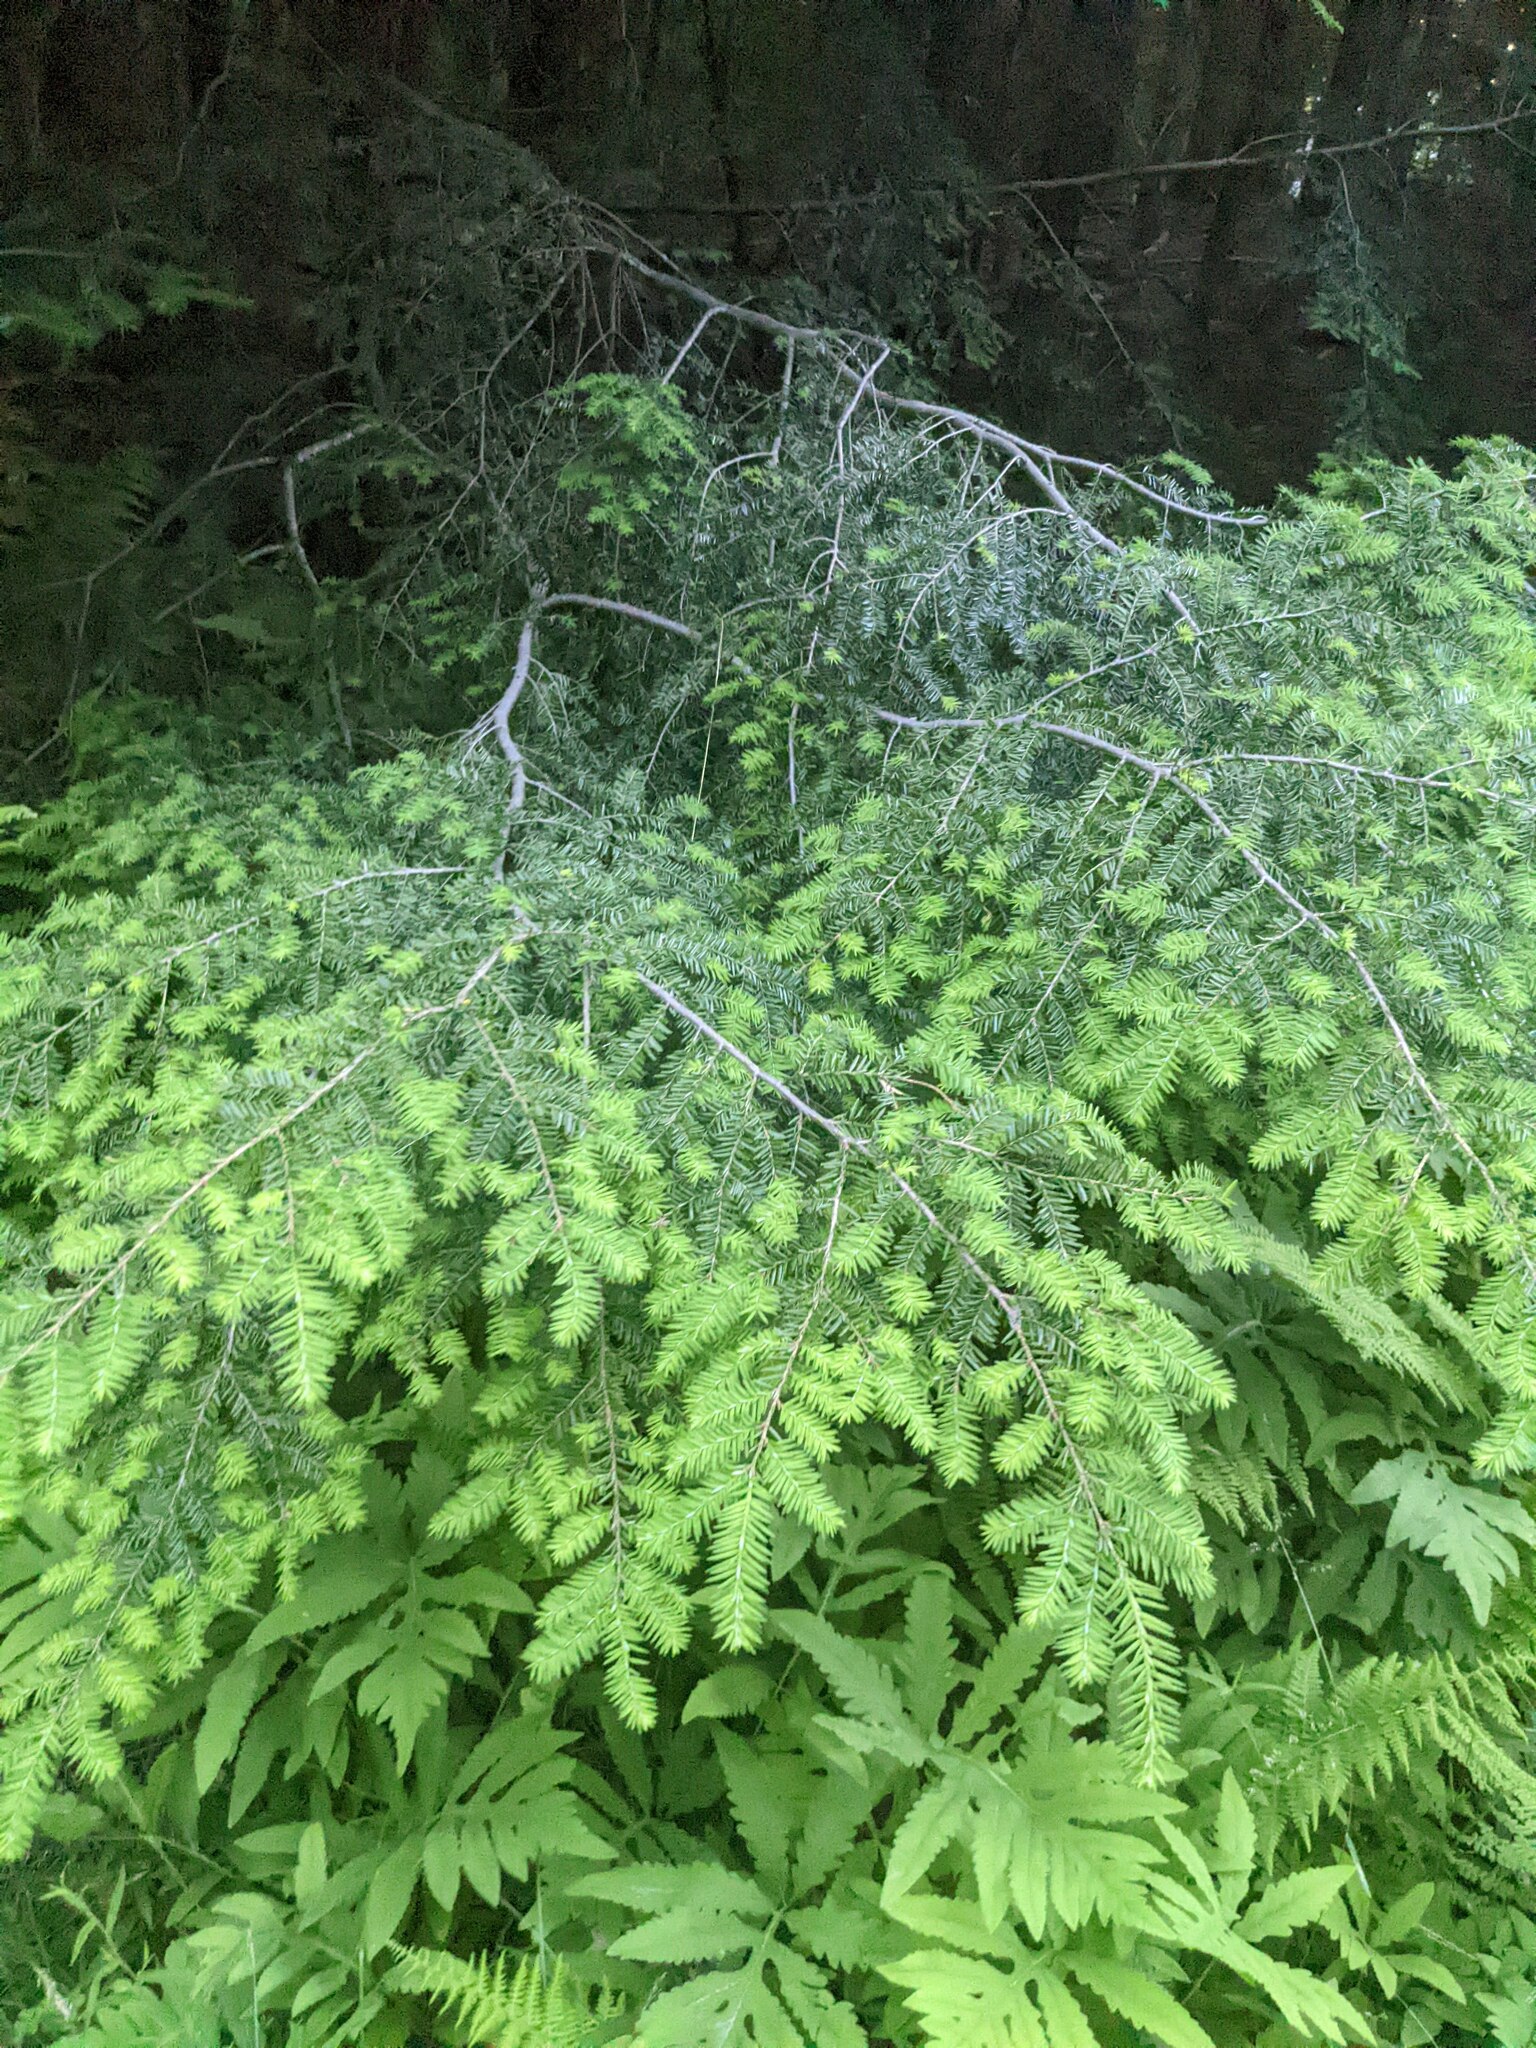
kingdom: Plantae
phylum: Tracheophyta
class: Pinopsida
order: Pinales
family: Pinaceae
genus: Tsuga
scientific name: Tsuga canadensis
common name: Eastern hemlock
